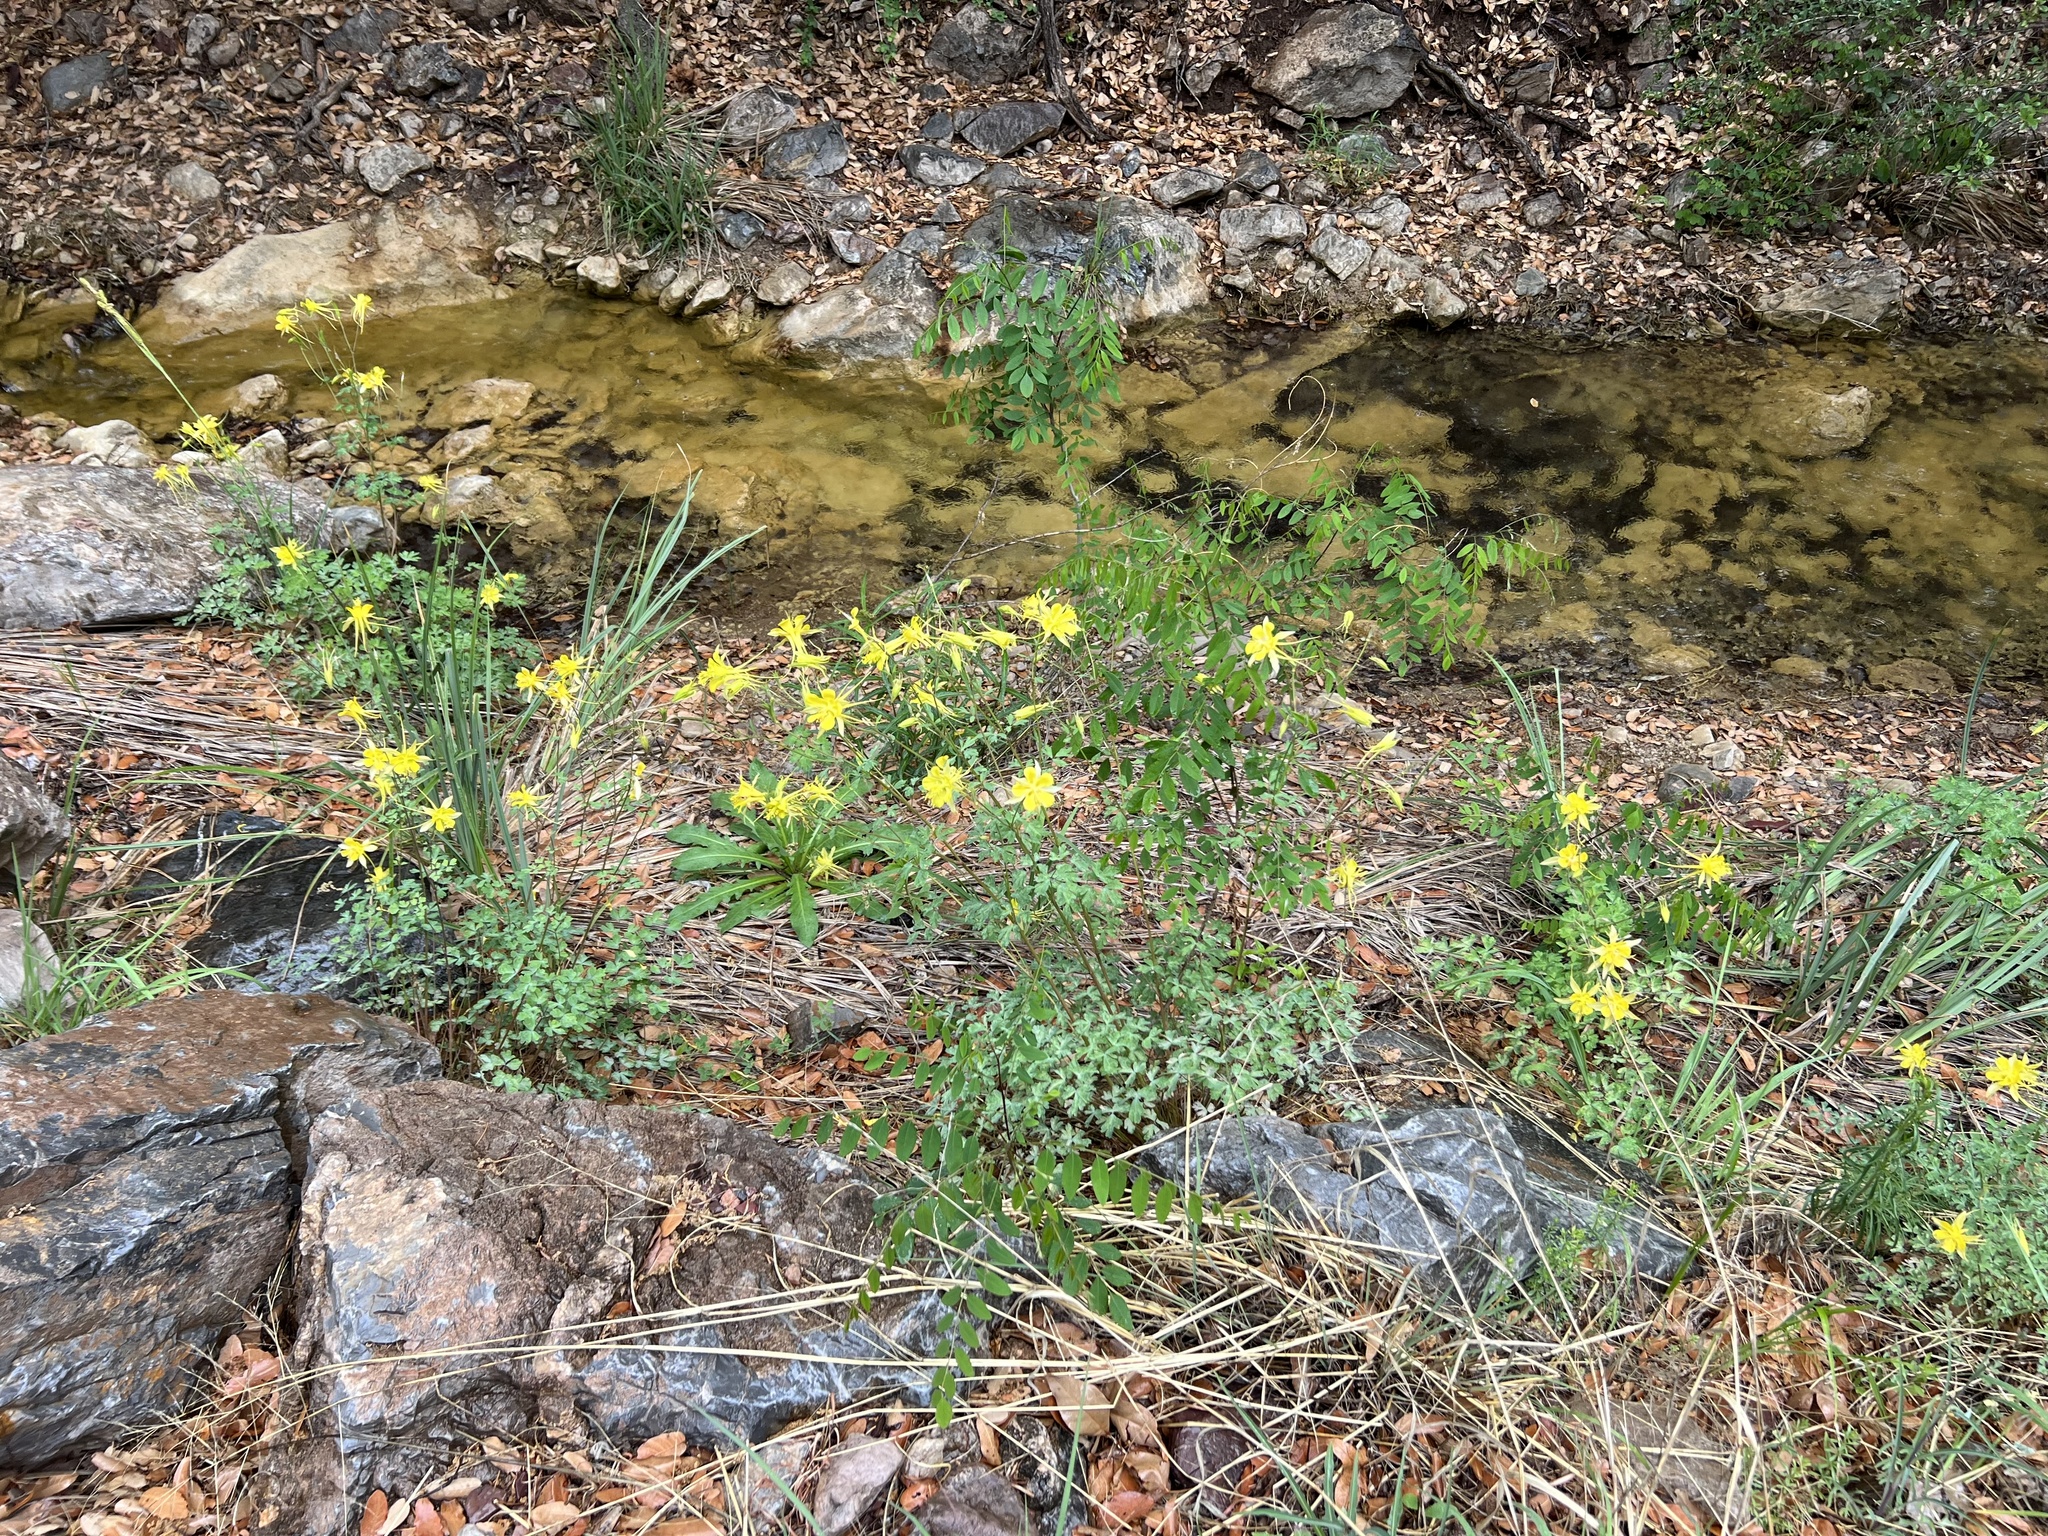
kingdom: Plantae
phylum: Tracheophyta
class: Magnoliopsida
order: Ranunculales
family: Ranunculaceae
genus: Aquilegia
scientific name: Aquilegia chrysantha
